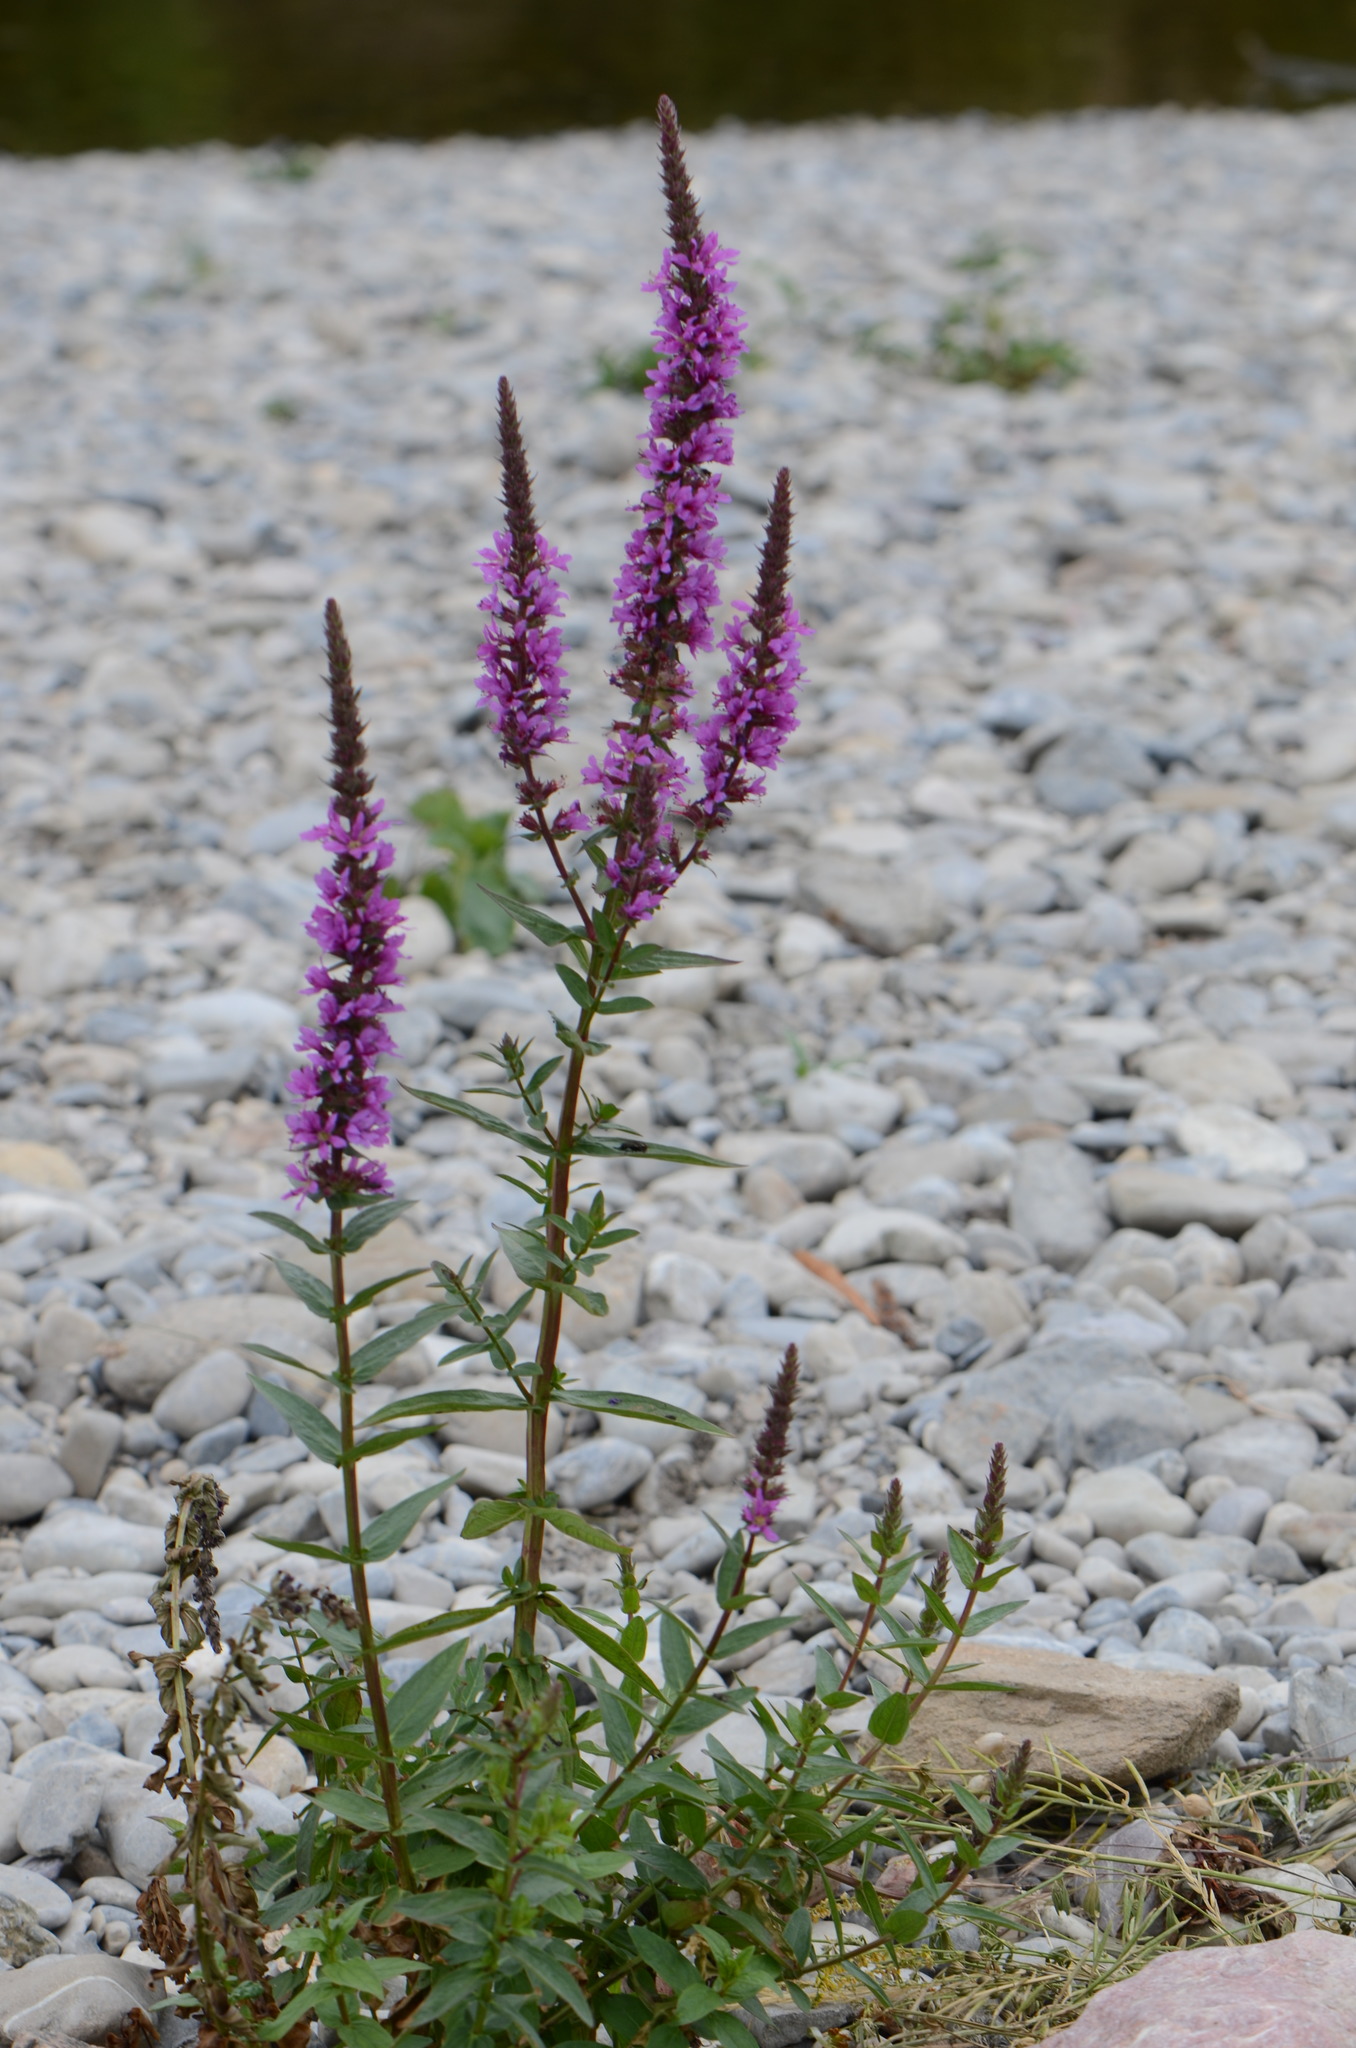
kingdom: Plantae
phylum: Tracheophyta
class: Magnoliopsida
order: Myrtales
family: Lythraceae
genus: Lythrum
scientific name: Lythrum salicaria
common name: Purple loosestrife
